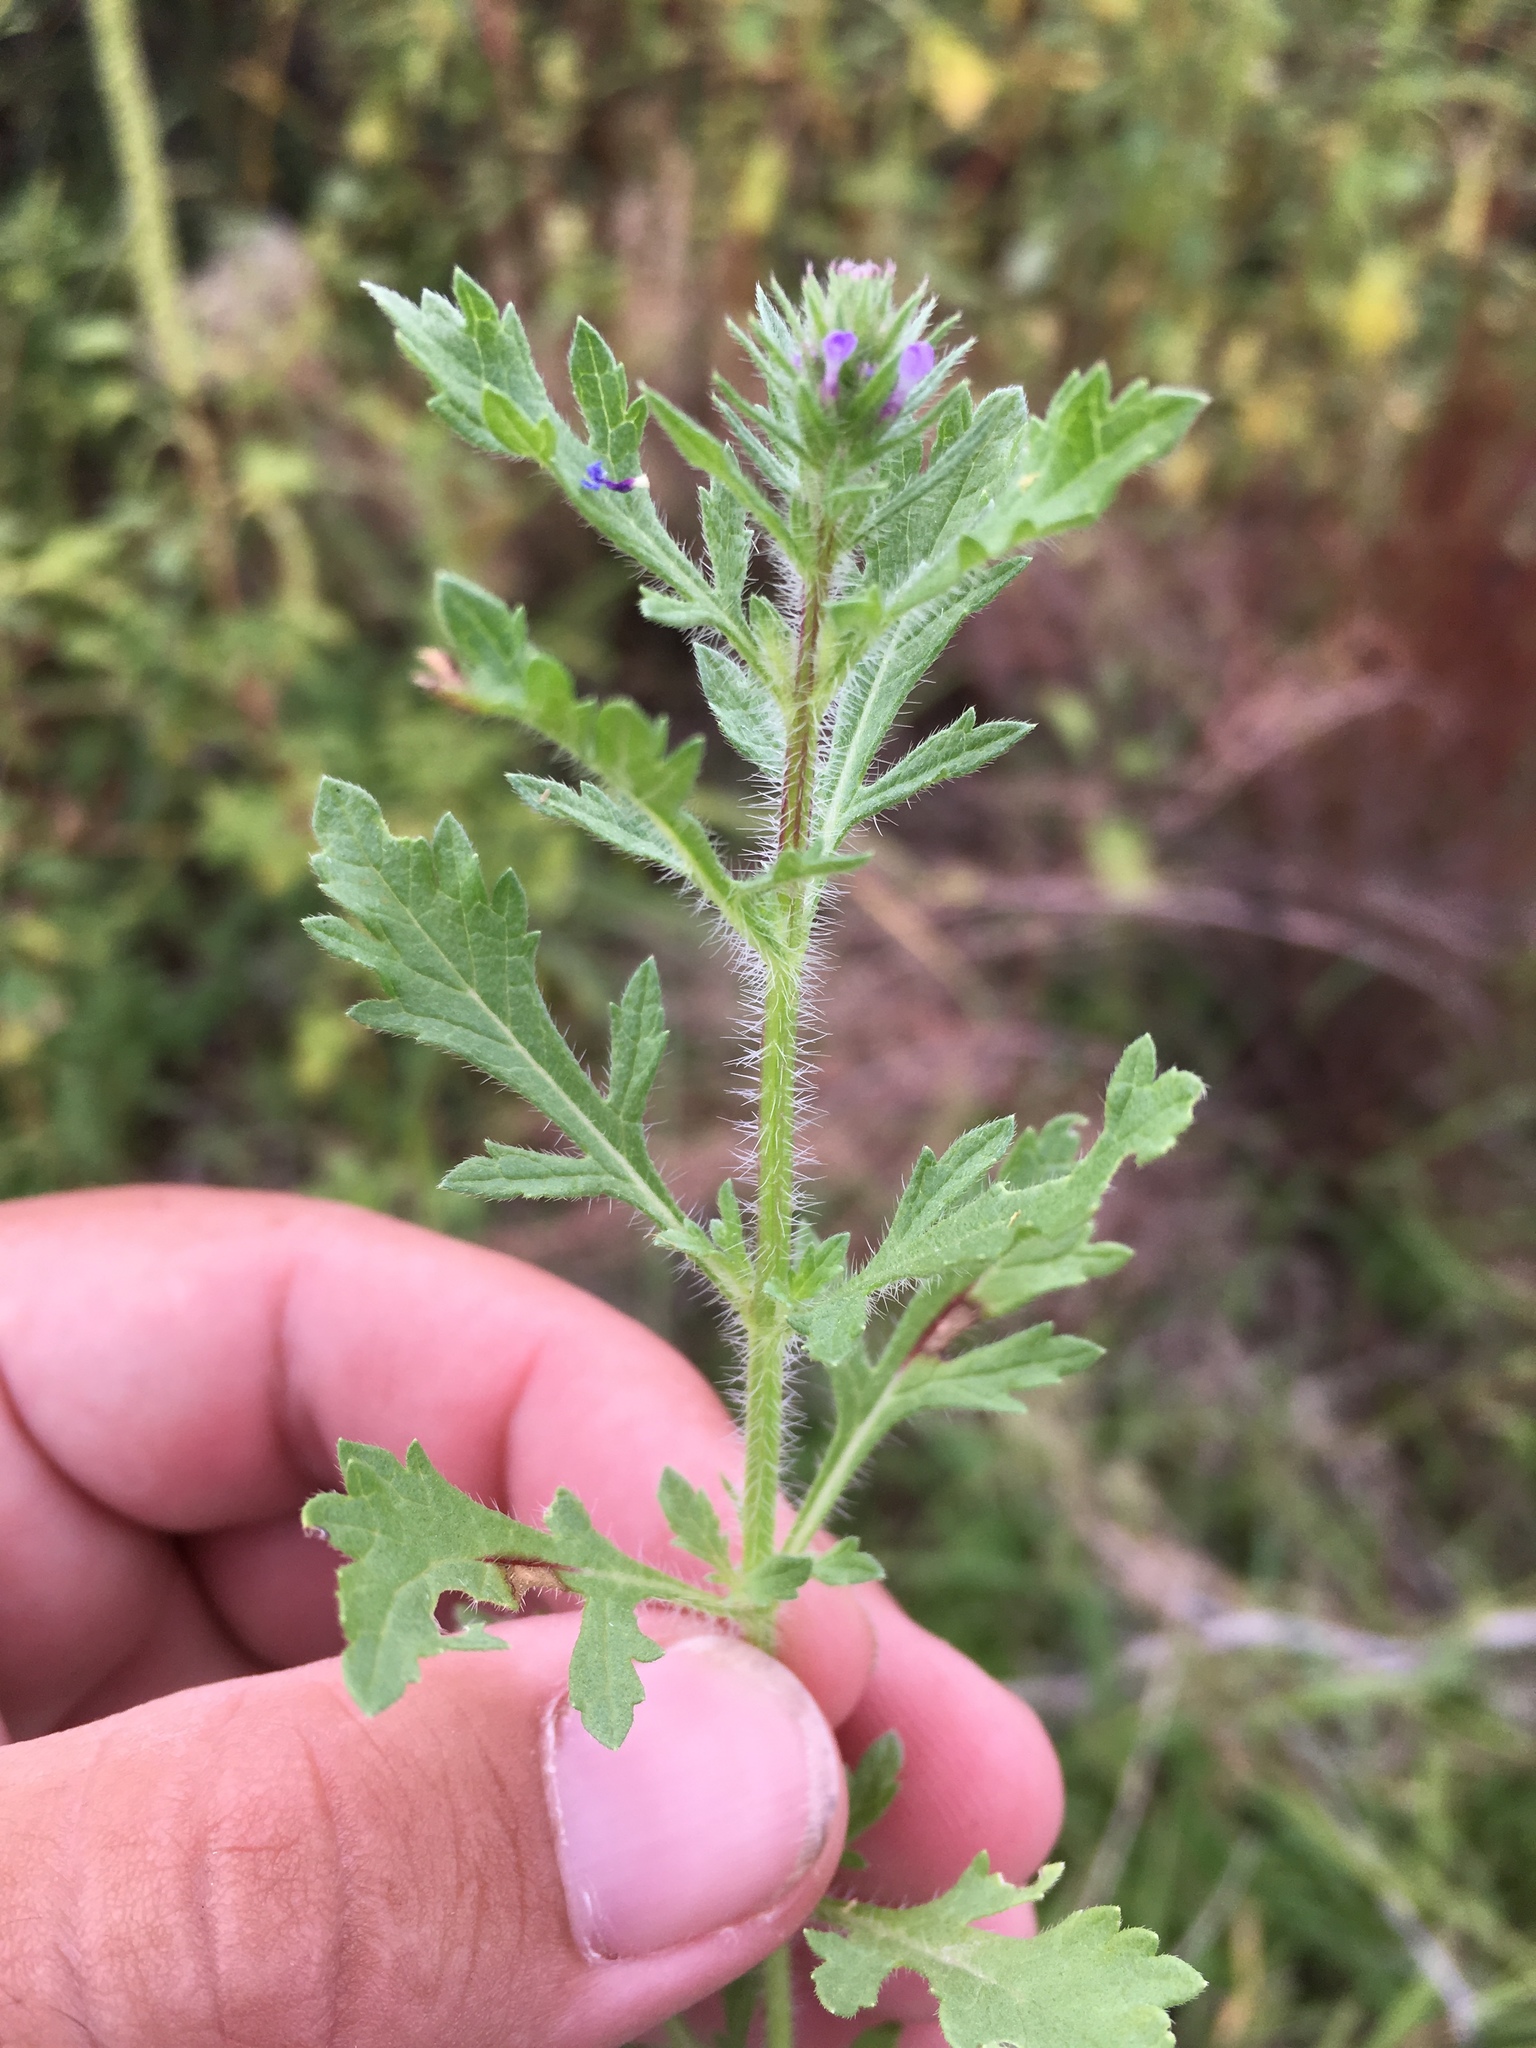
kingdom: Plantae
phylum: Tracheophyta
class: Magnoliopsida
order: Lamiales
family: Verbenaceae
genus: Verbena
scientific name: Verbena bracteata
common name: Bracted vervain
